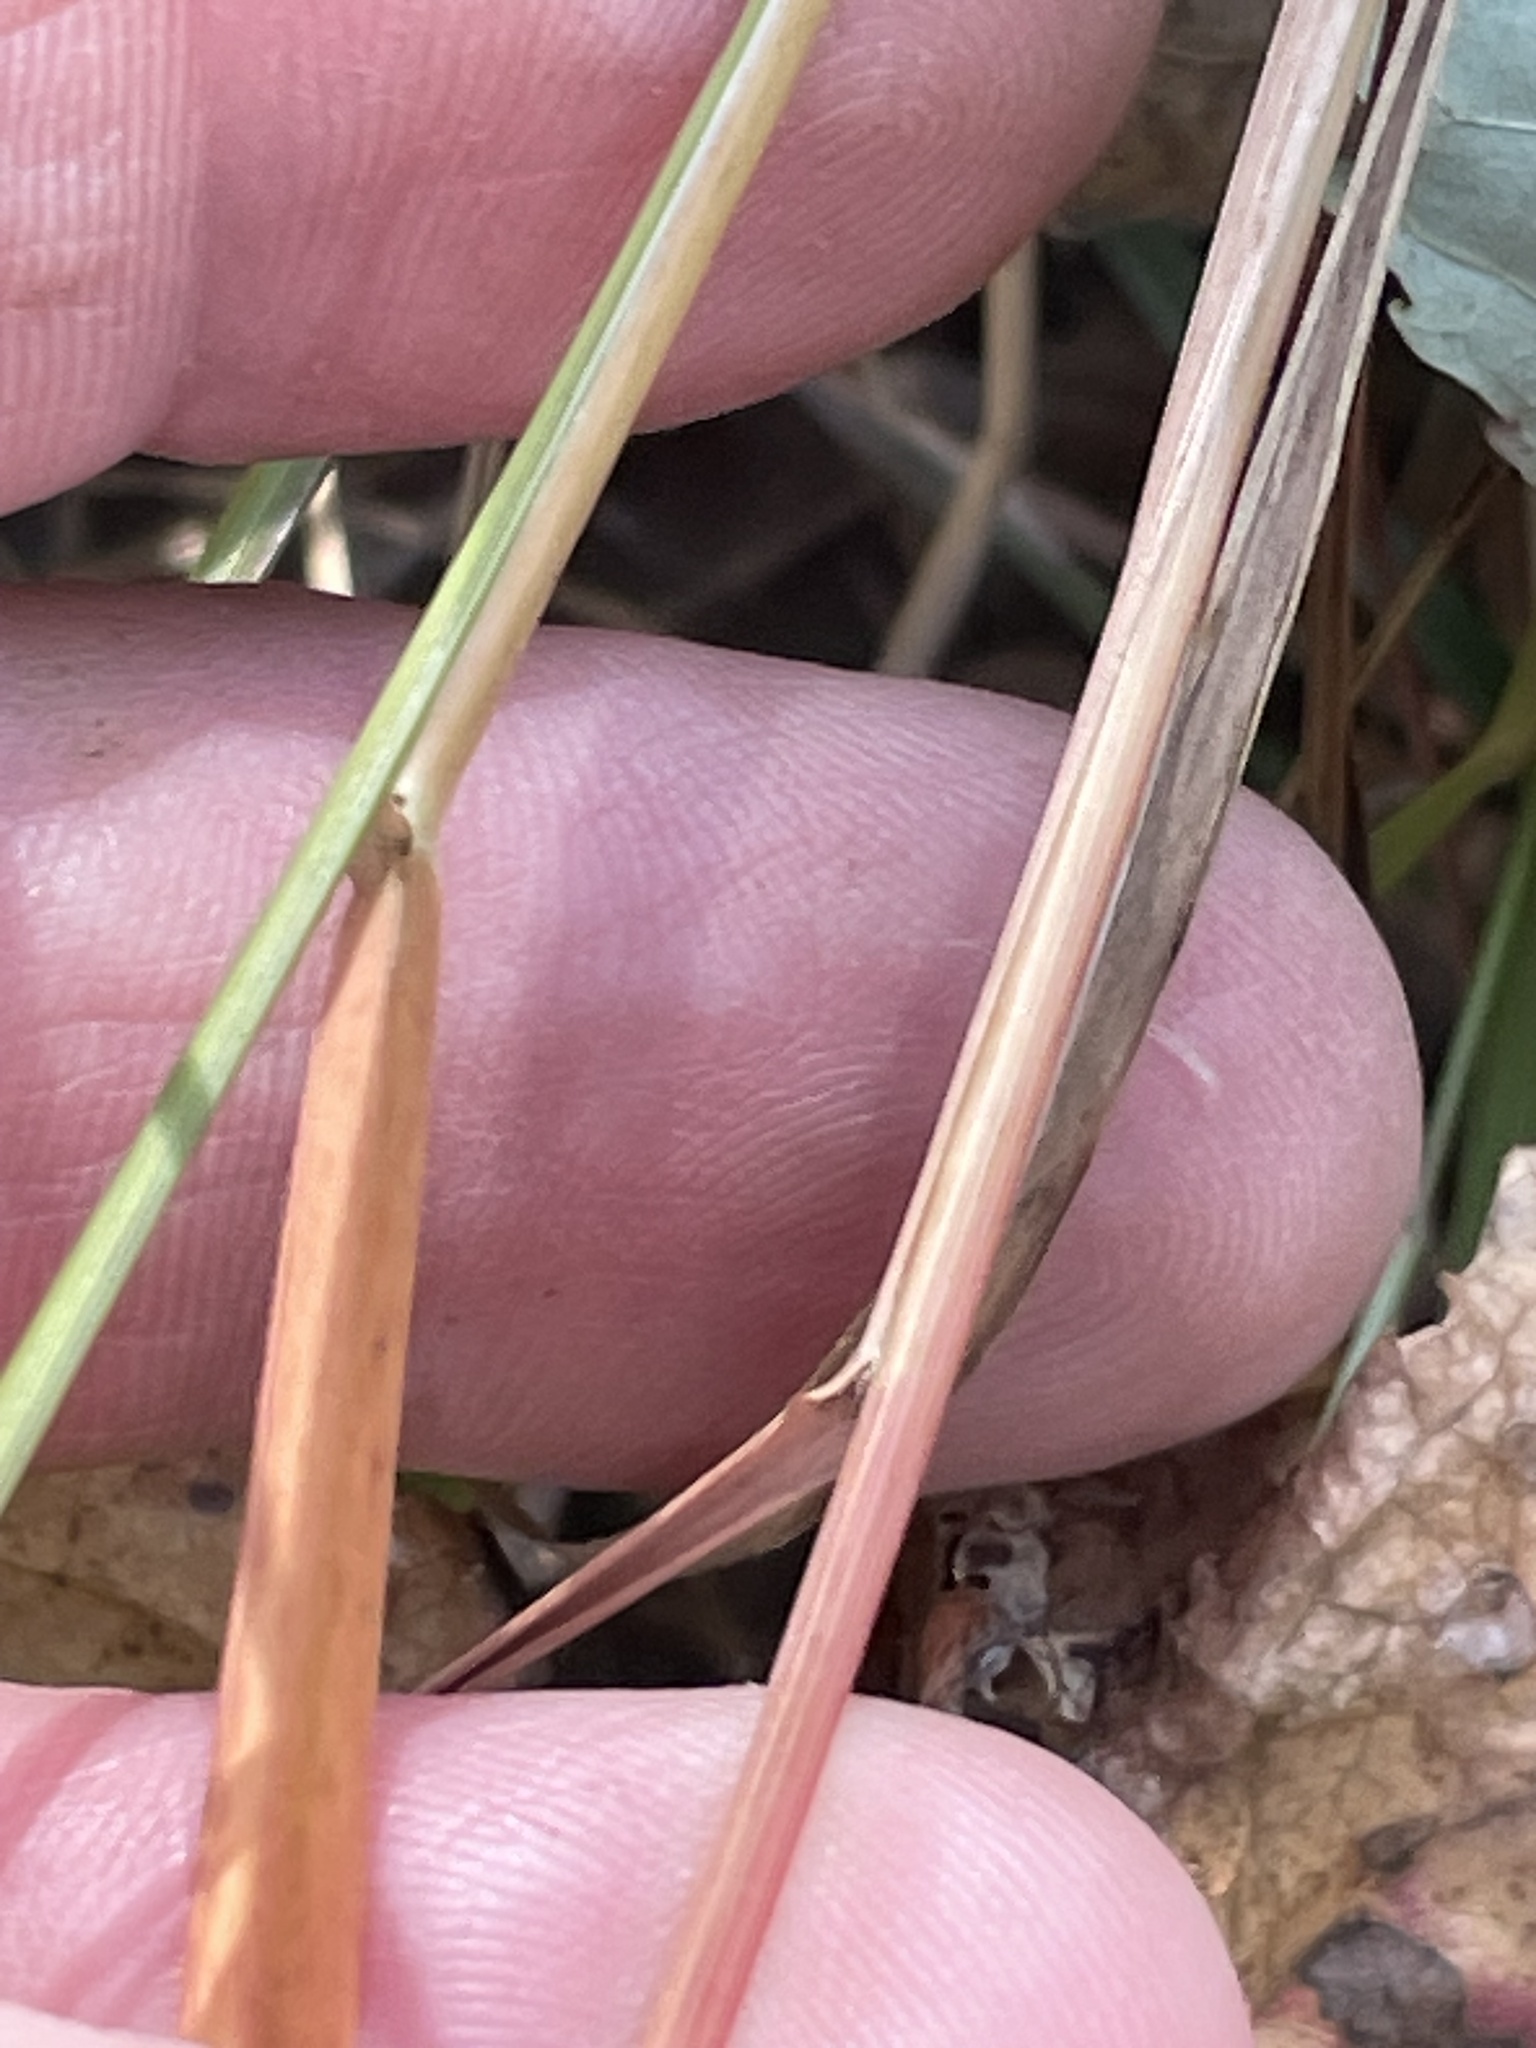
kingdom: Plantae
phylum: Tracheophyta
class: Liliopsida
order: Poales
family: Poaceae
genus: Chasmanthium
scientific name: Chasmanthium laxum
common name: Slender chasmanthium
